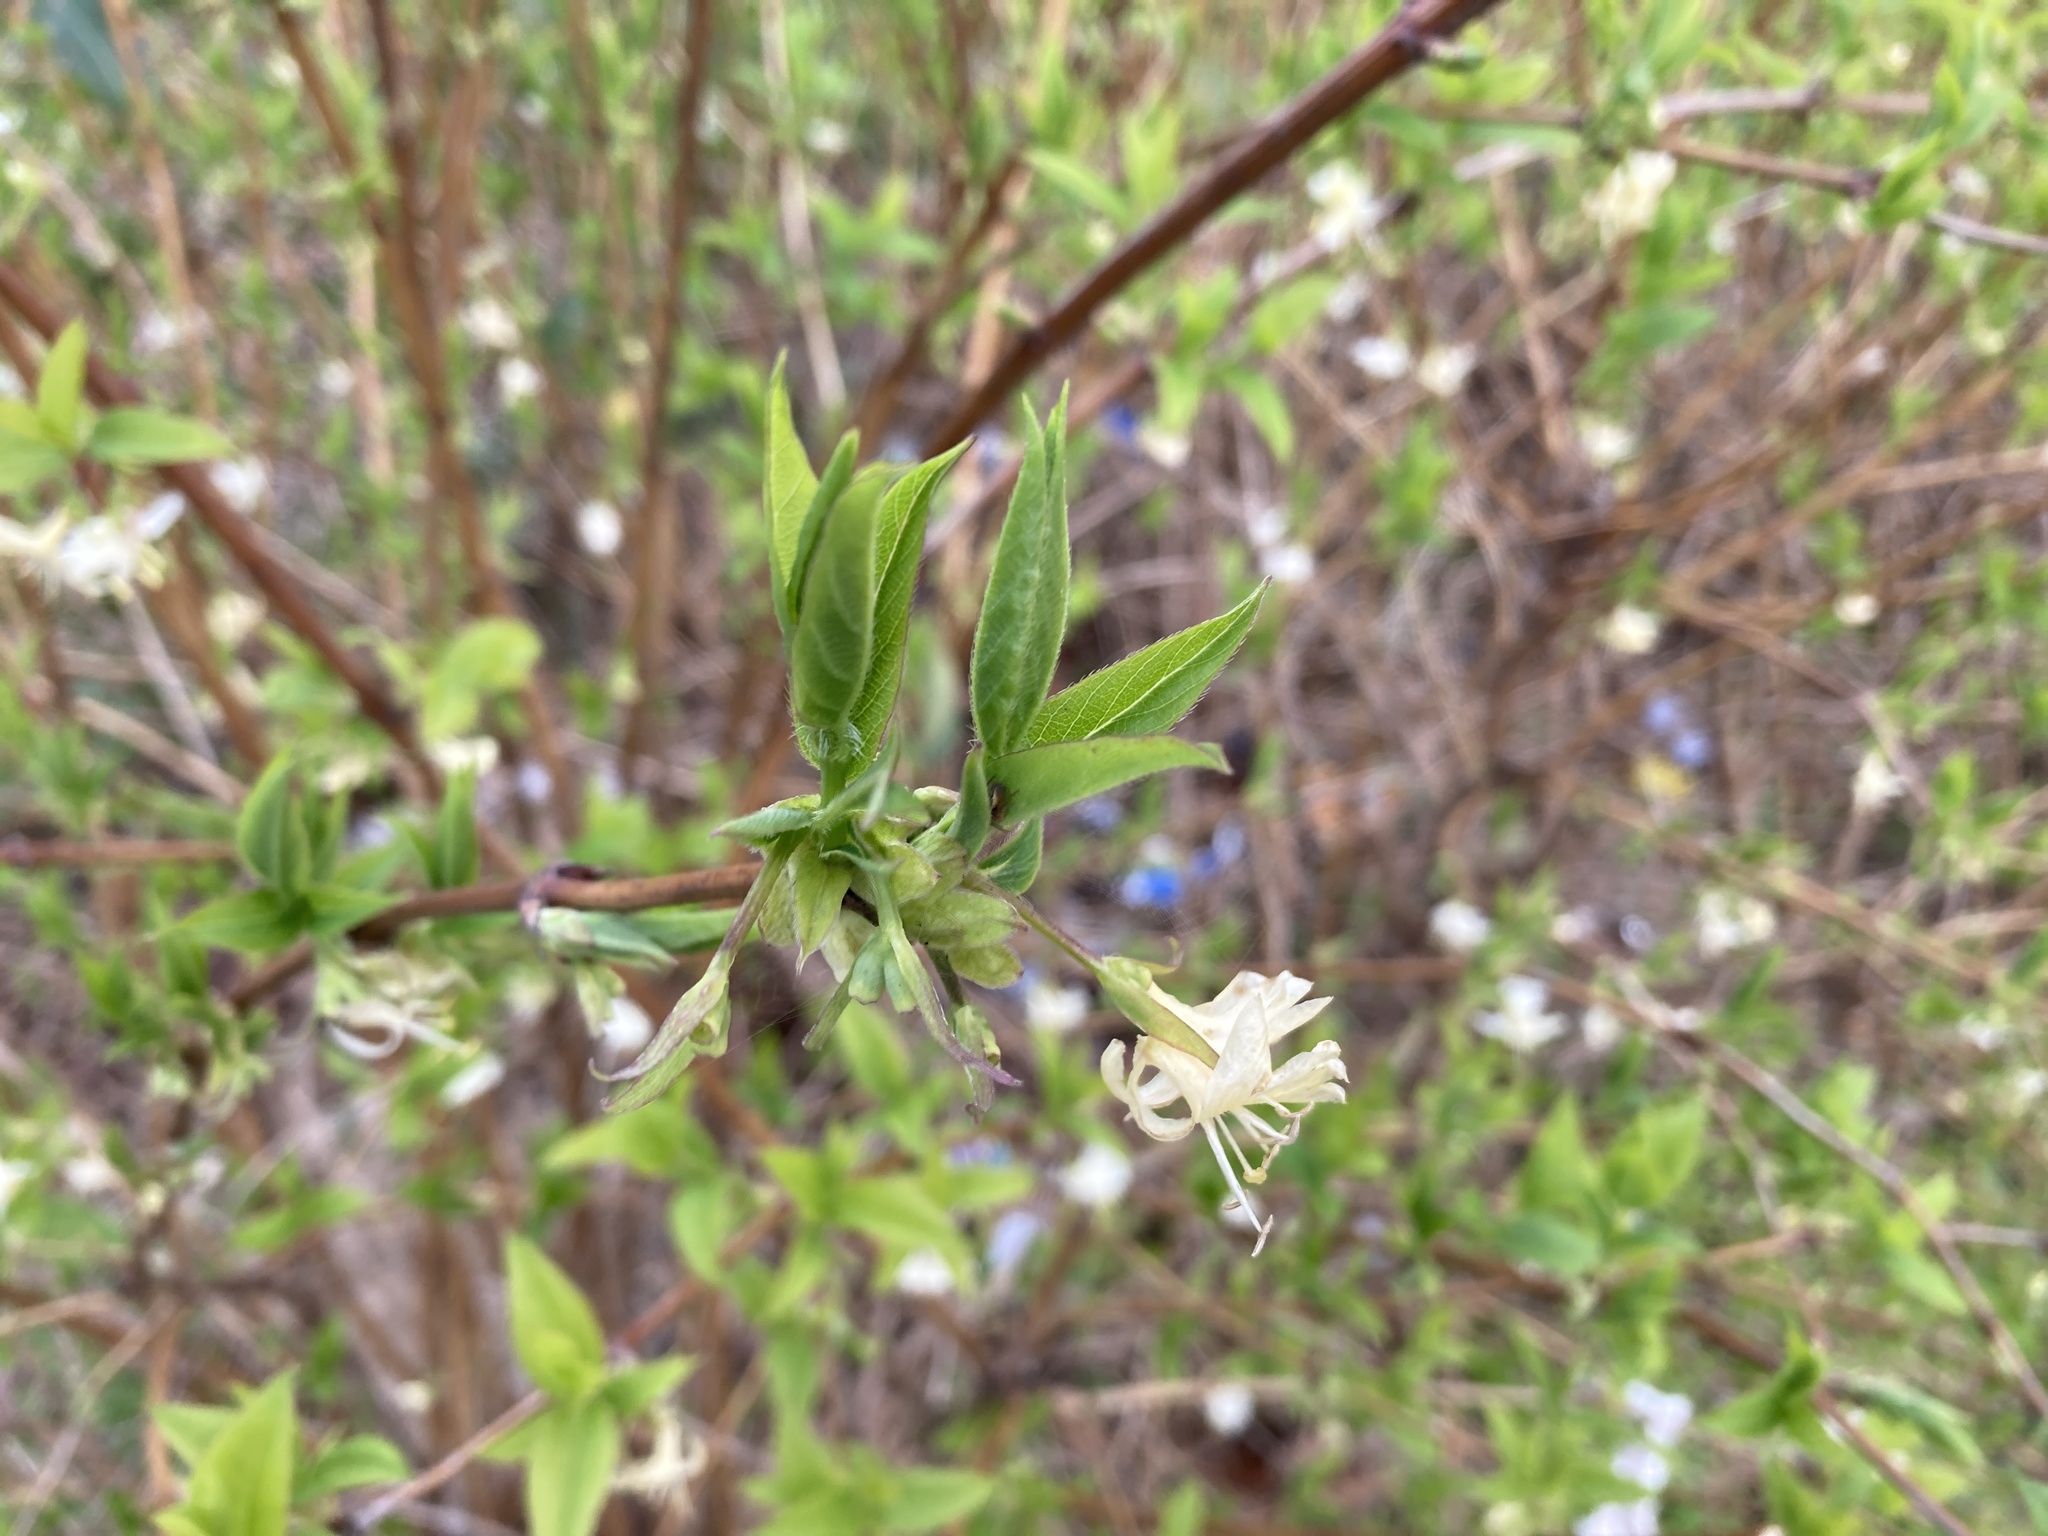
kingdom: Plantae
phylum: Tracheophyta
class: Magnoliopsida
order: Dipsacales
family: Caprifoliaceae
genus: Lonicera
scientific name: Lonicera fragrantissima
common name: Fragrant honeysuckle
